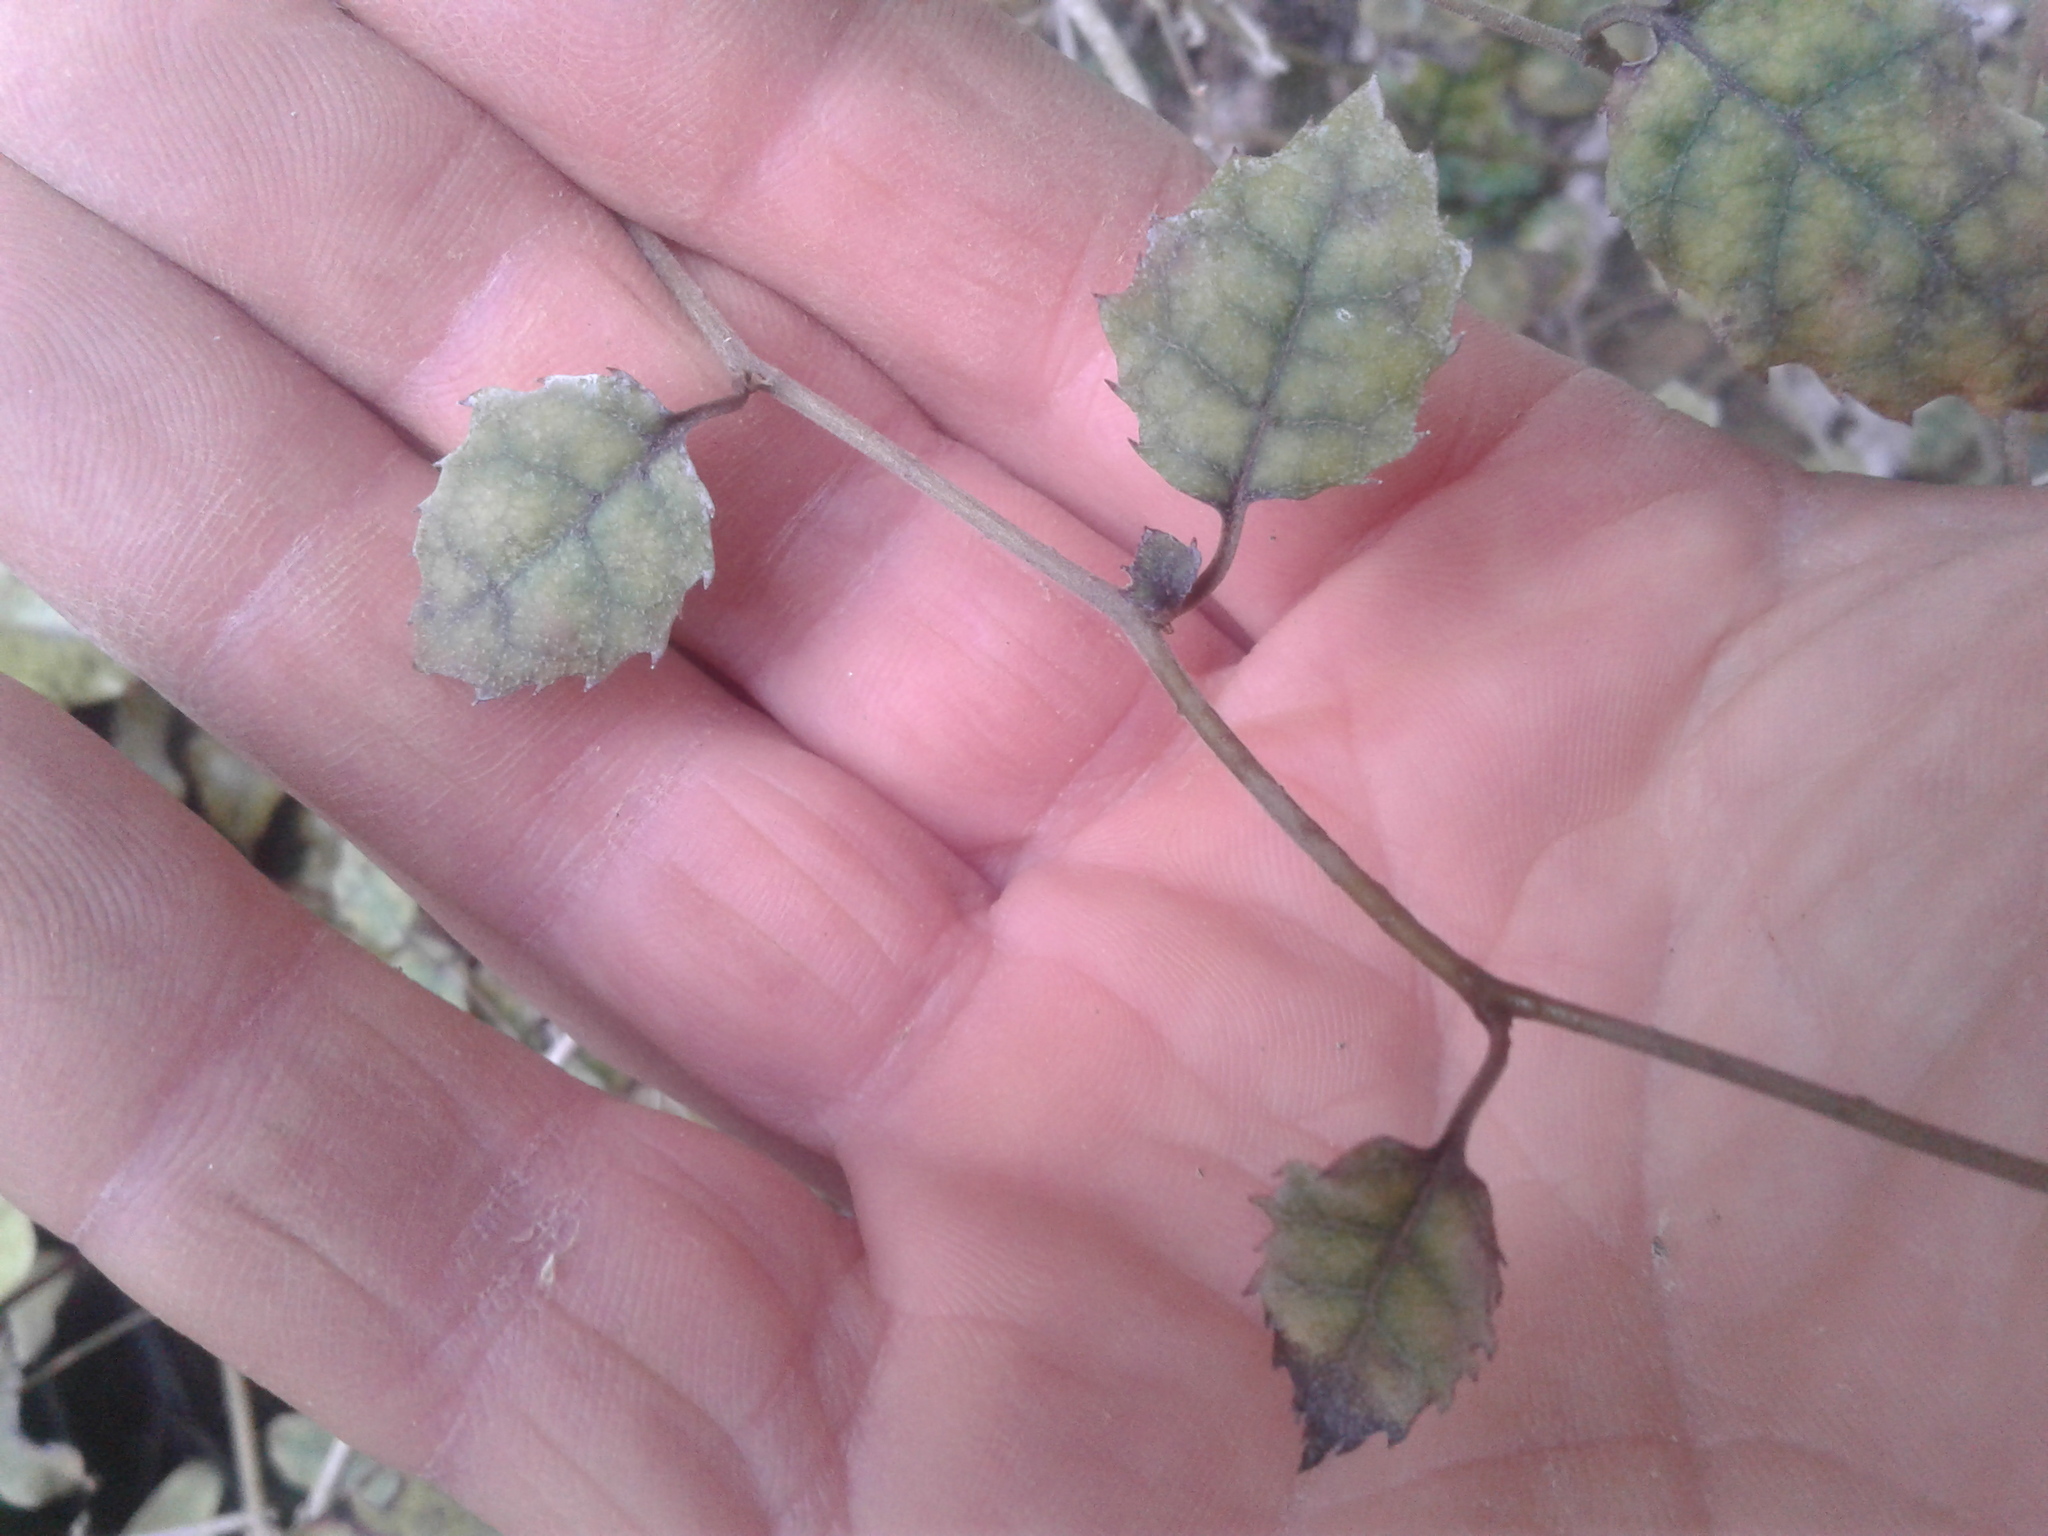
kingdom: Plantae
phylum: Tracheophyta
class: Magnoliopsida
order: Asterales
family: Rousseaceae
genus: Carpodetus
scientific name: Carpodetus serratus
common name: White mapau
